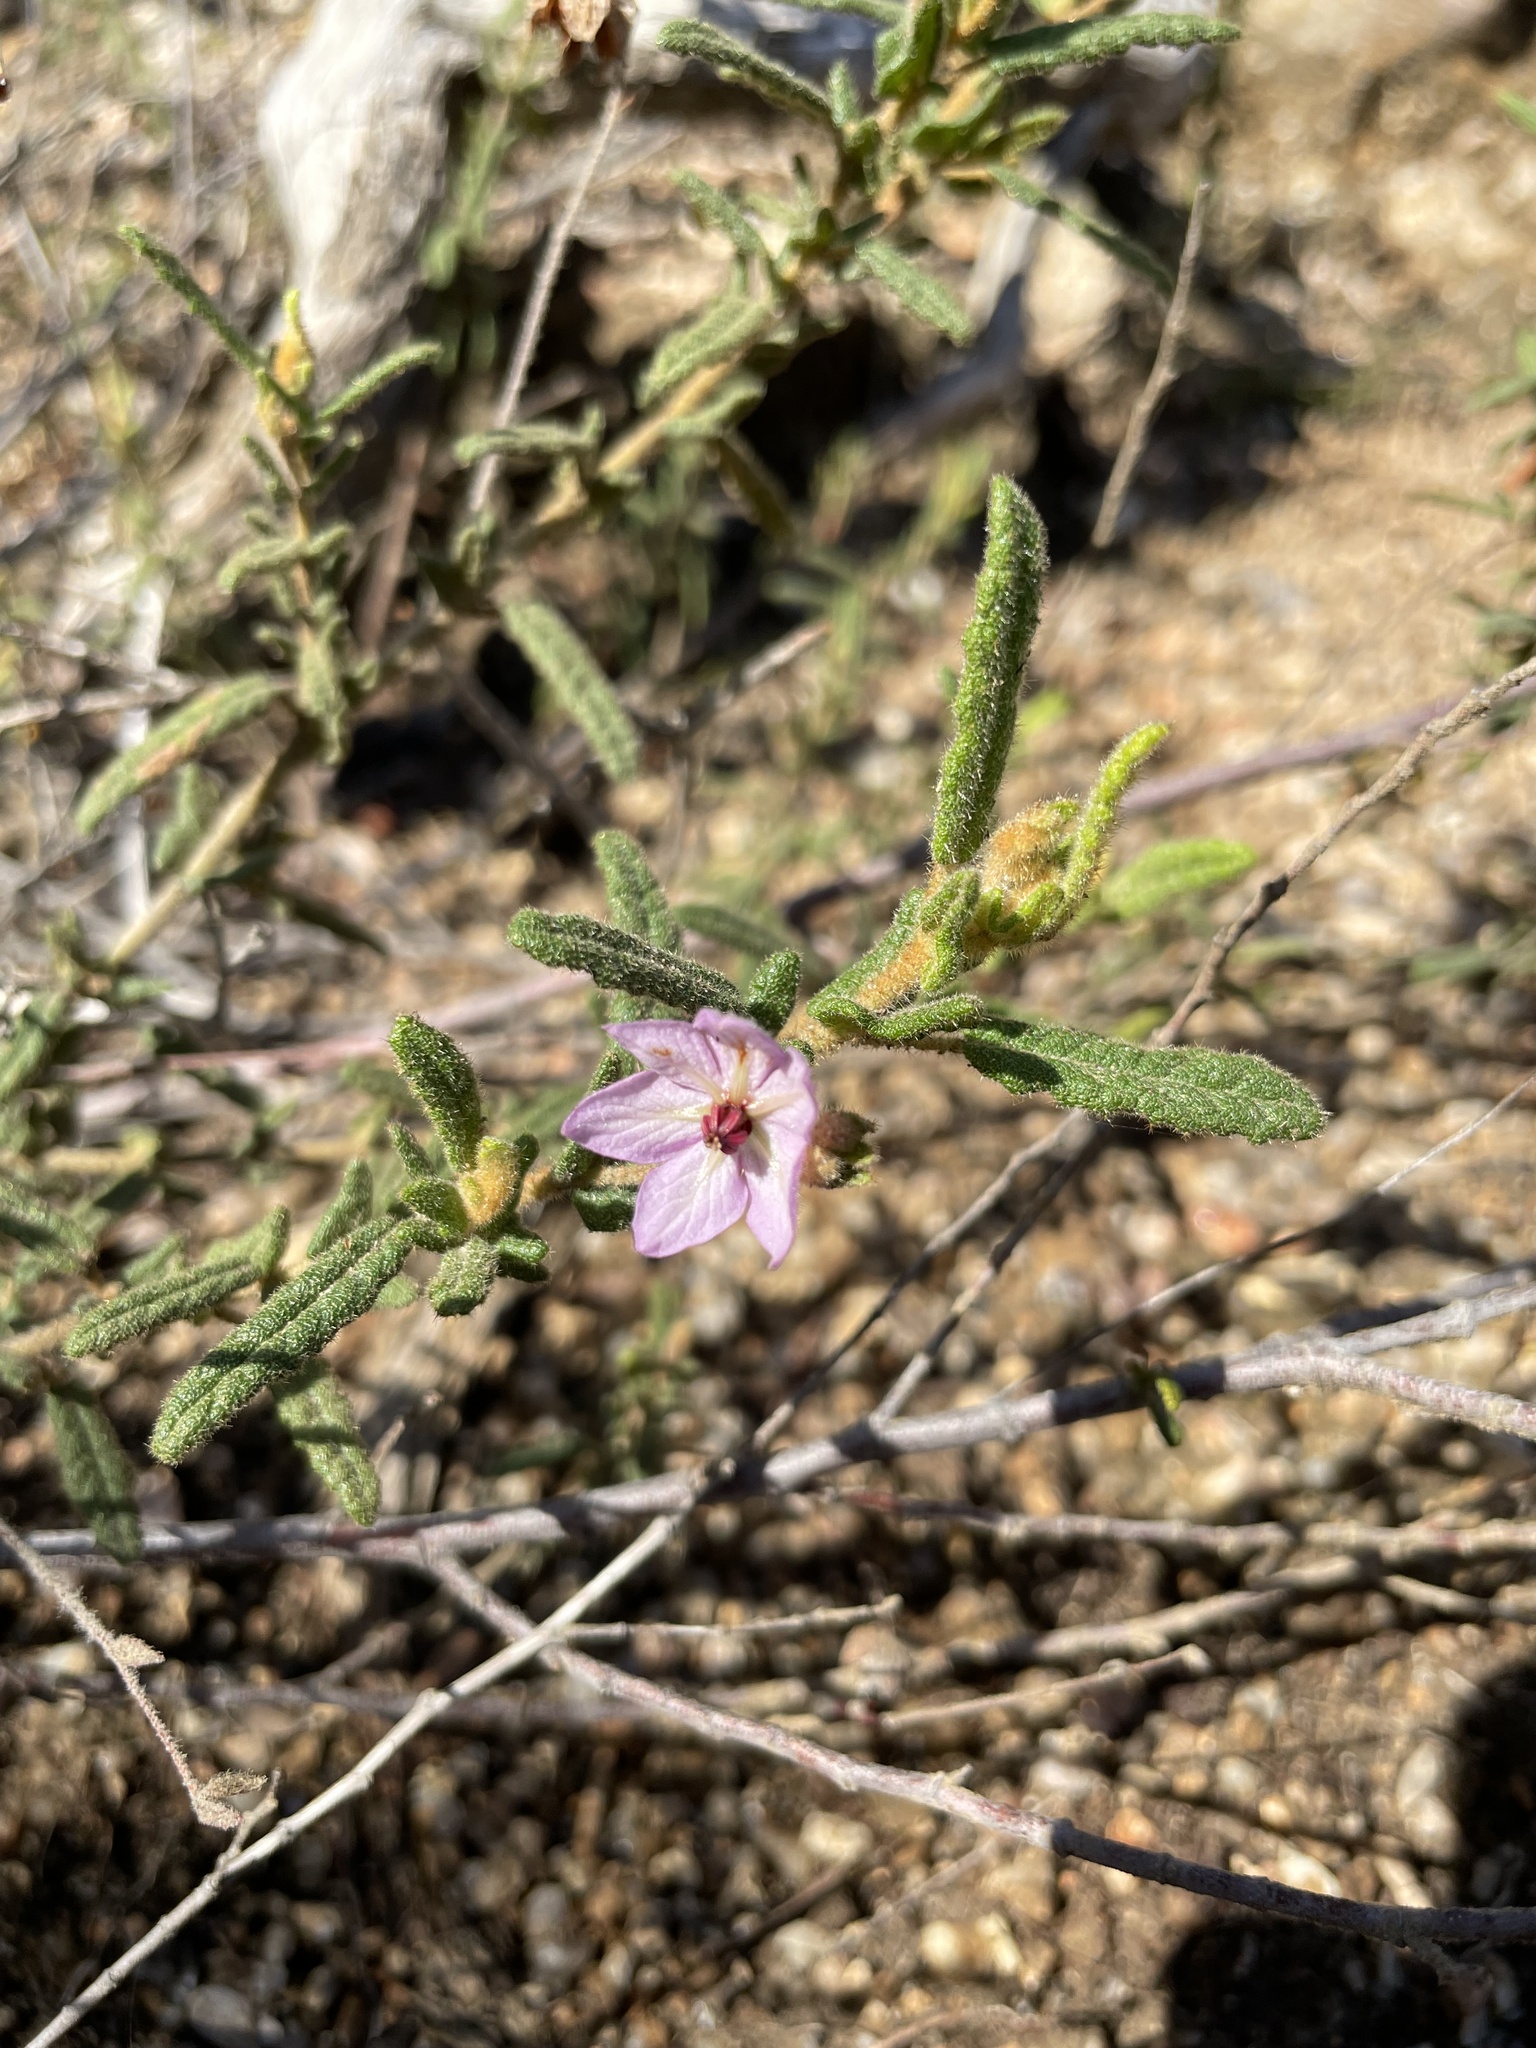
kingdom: Plantae
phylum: Tracheophyta
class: Magnoliopsida
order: Malvales
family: Malvaceae
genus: Thomasia
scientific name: Thomasia petalocalyx
